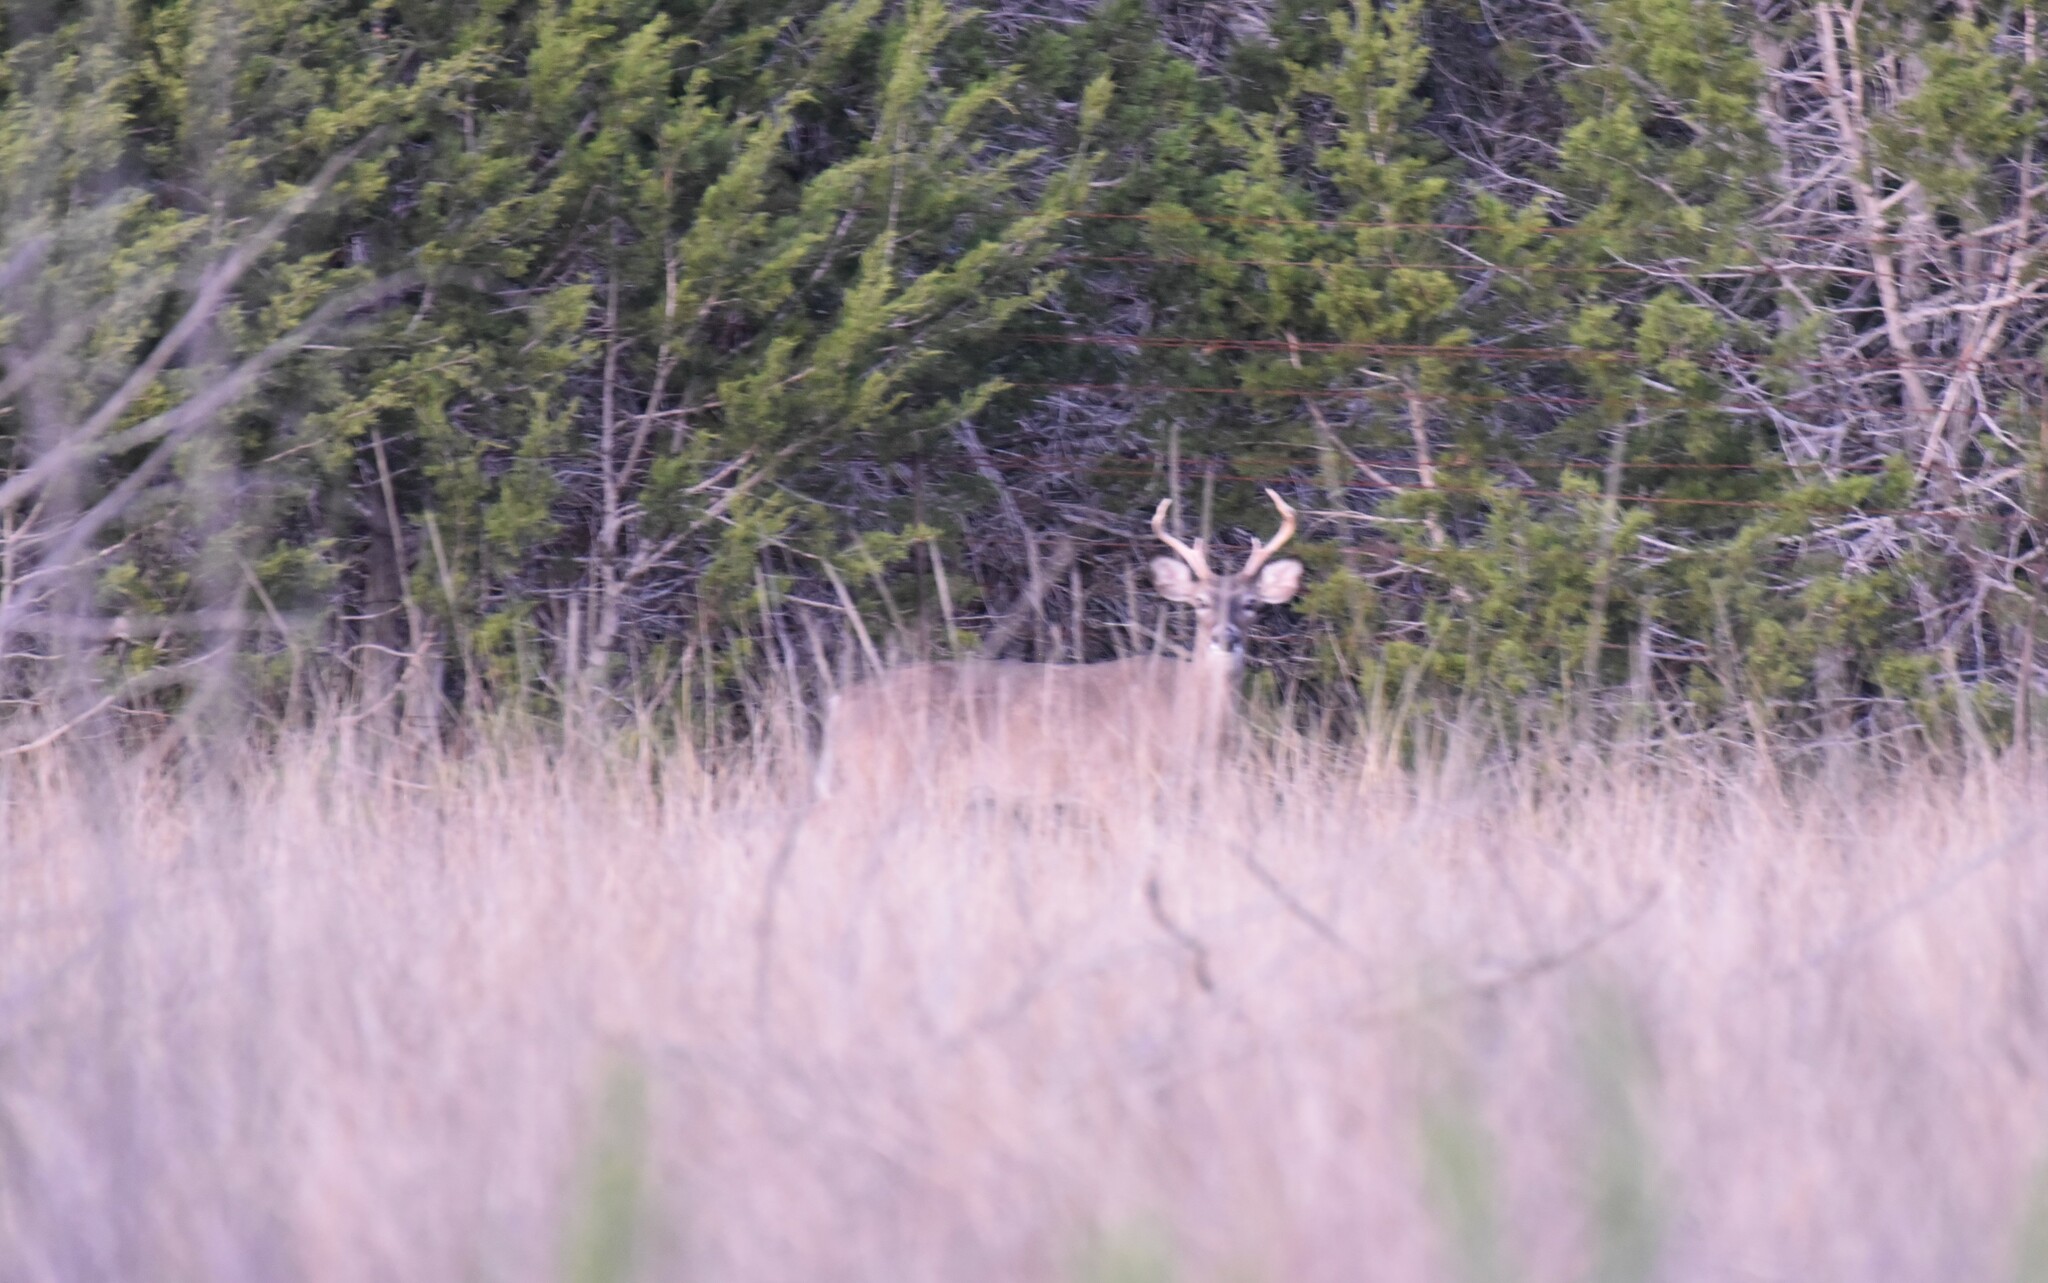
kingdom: Animalia
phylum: Chordata
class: Mammalia
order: Artiodactyla
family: Cervidae
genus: Odocoileus
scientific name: Odocoileus virginianus
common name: White-tailed deer
